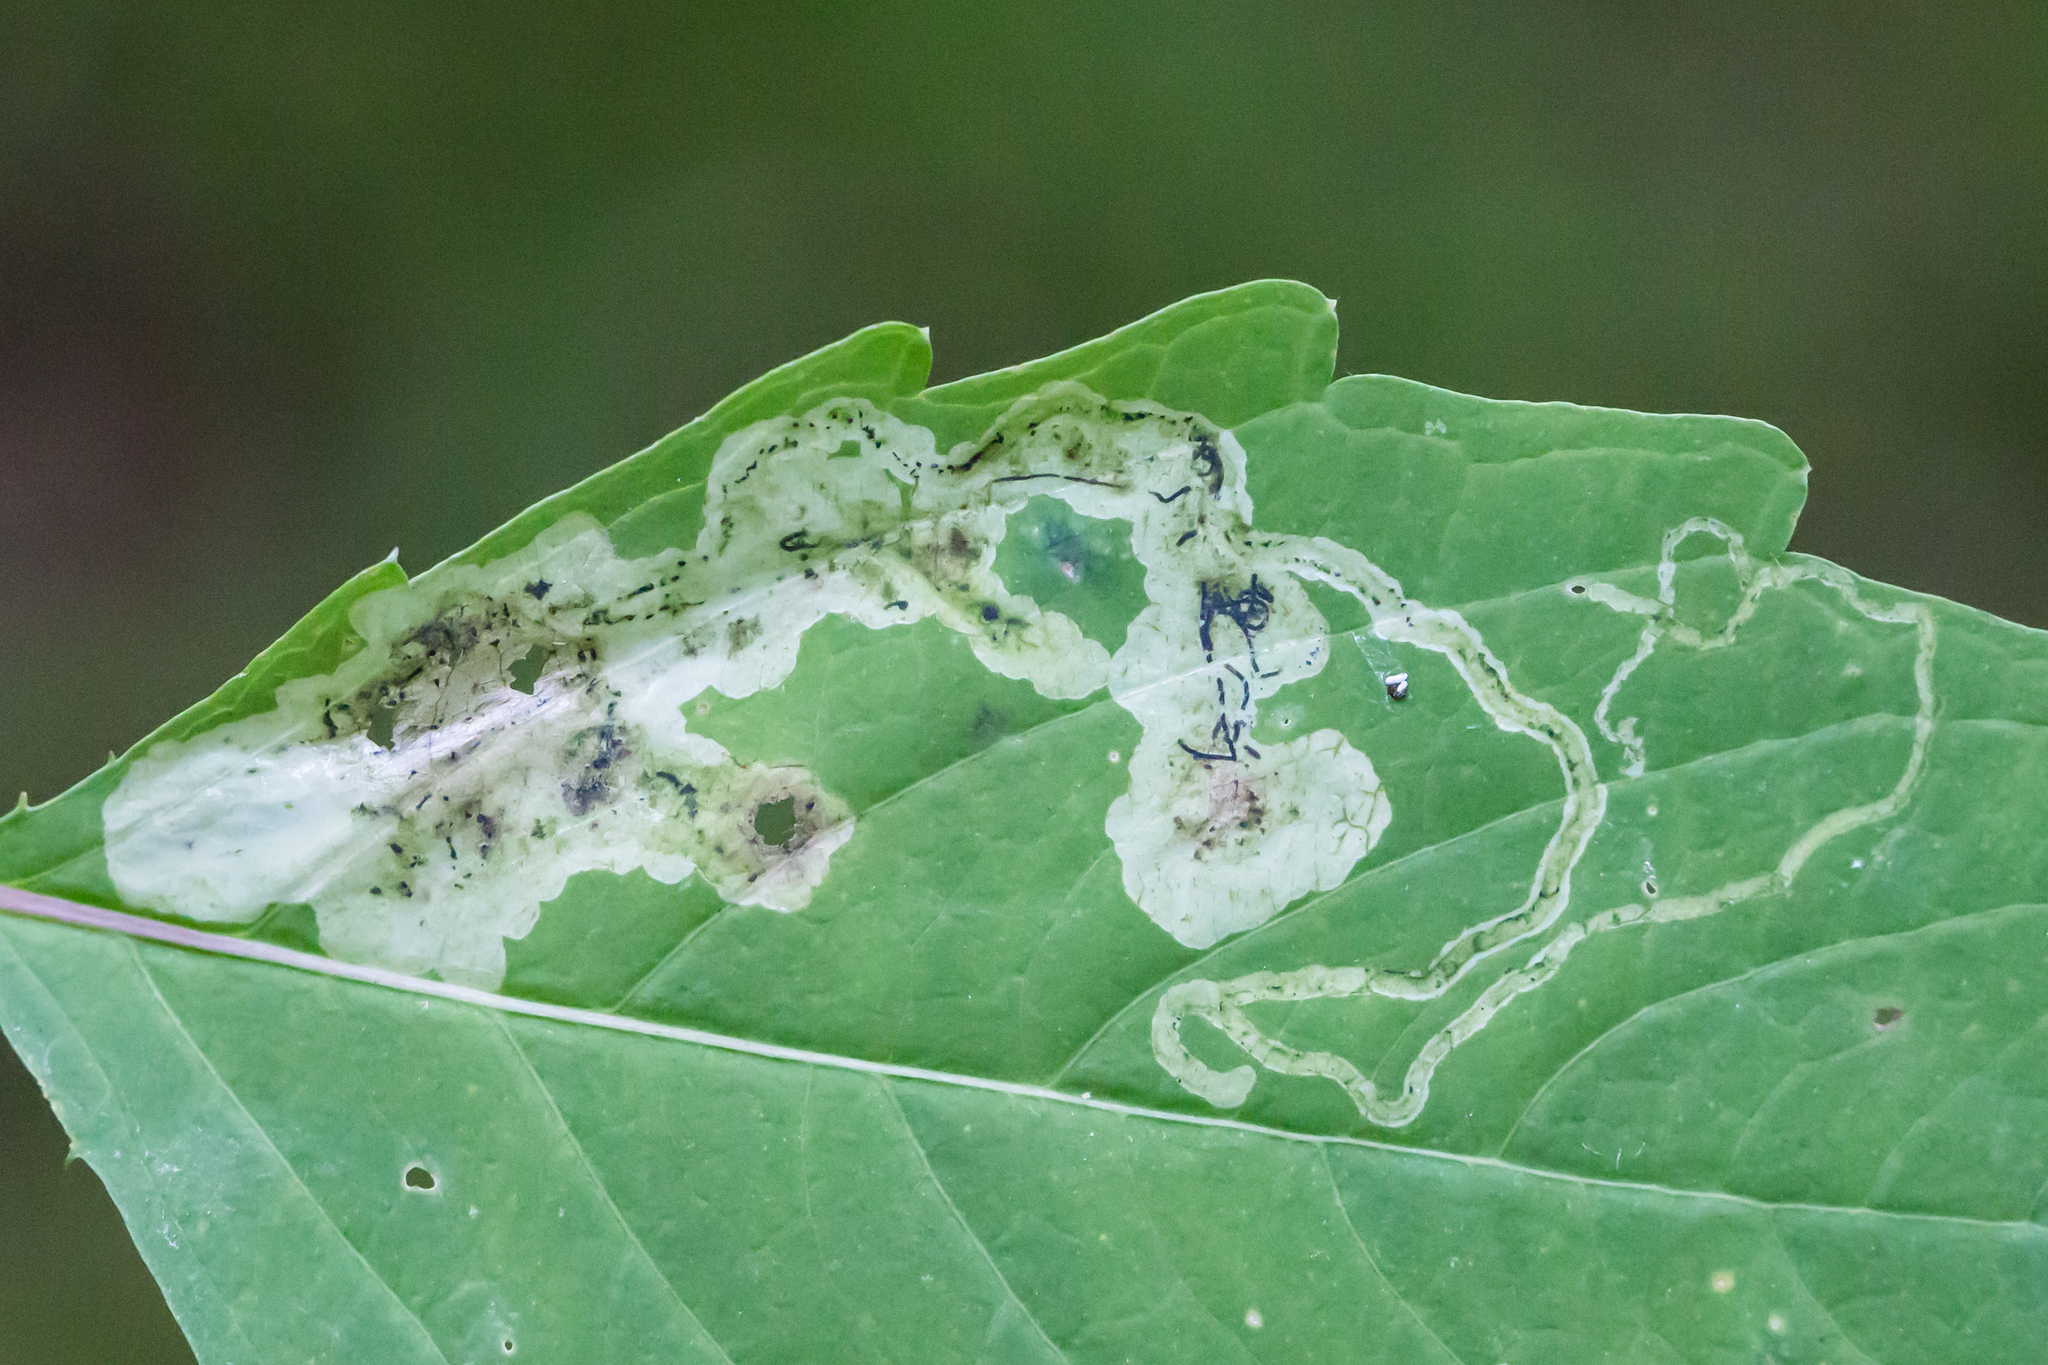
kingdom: Animalia
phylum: Arthropoda
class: Insecta
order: Diptera
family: Agromyzidae
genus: Phytoliriomyza
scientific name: Phytoliriomyza melampyga
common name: Jewelweed leaf-miner fly
